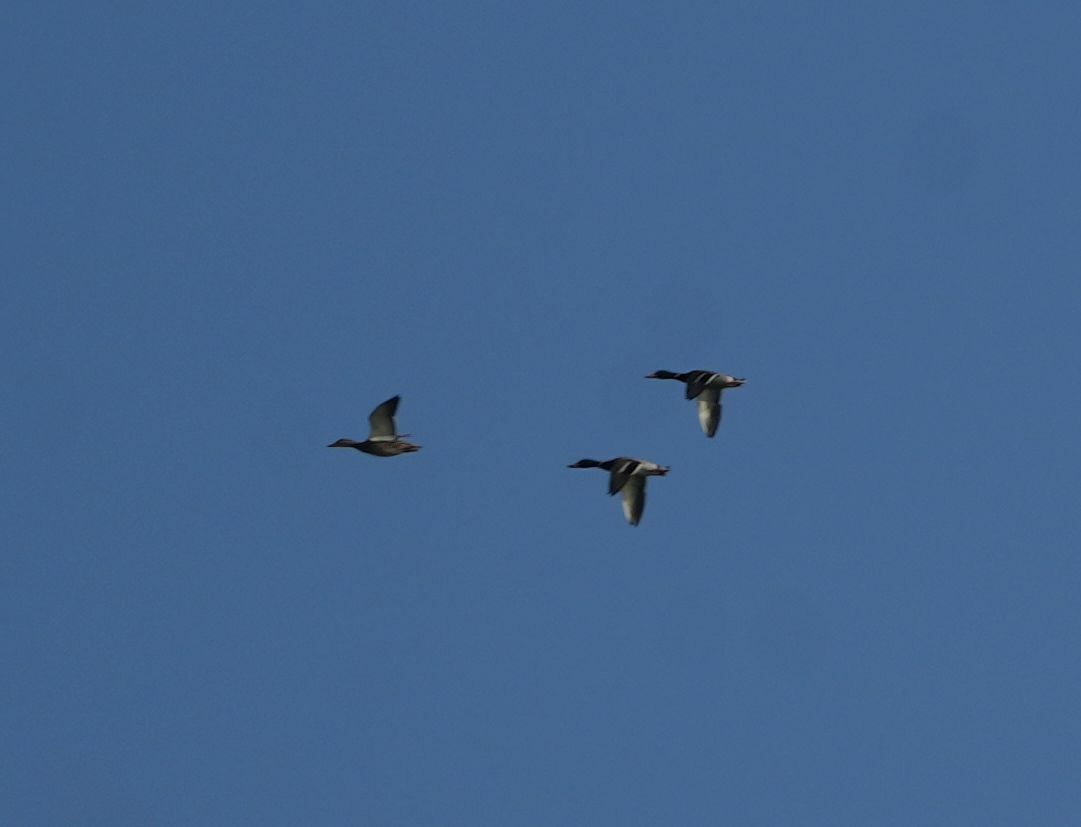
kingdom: Animalia
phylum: Chordata
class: Aves
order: Anseriformes
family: Anatidae
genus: Anas
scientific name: Anas platyrhynchos
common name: Mallard
